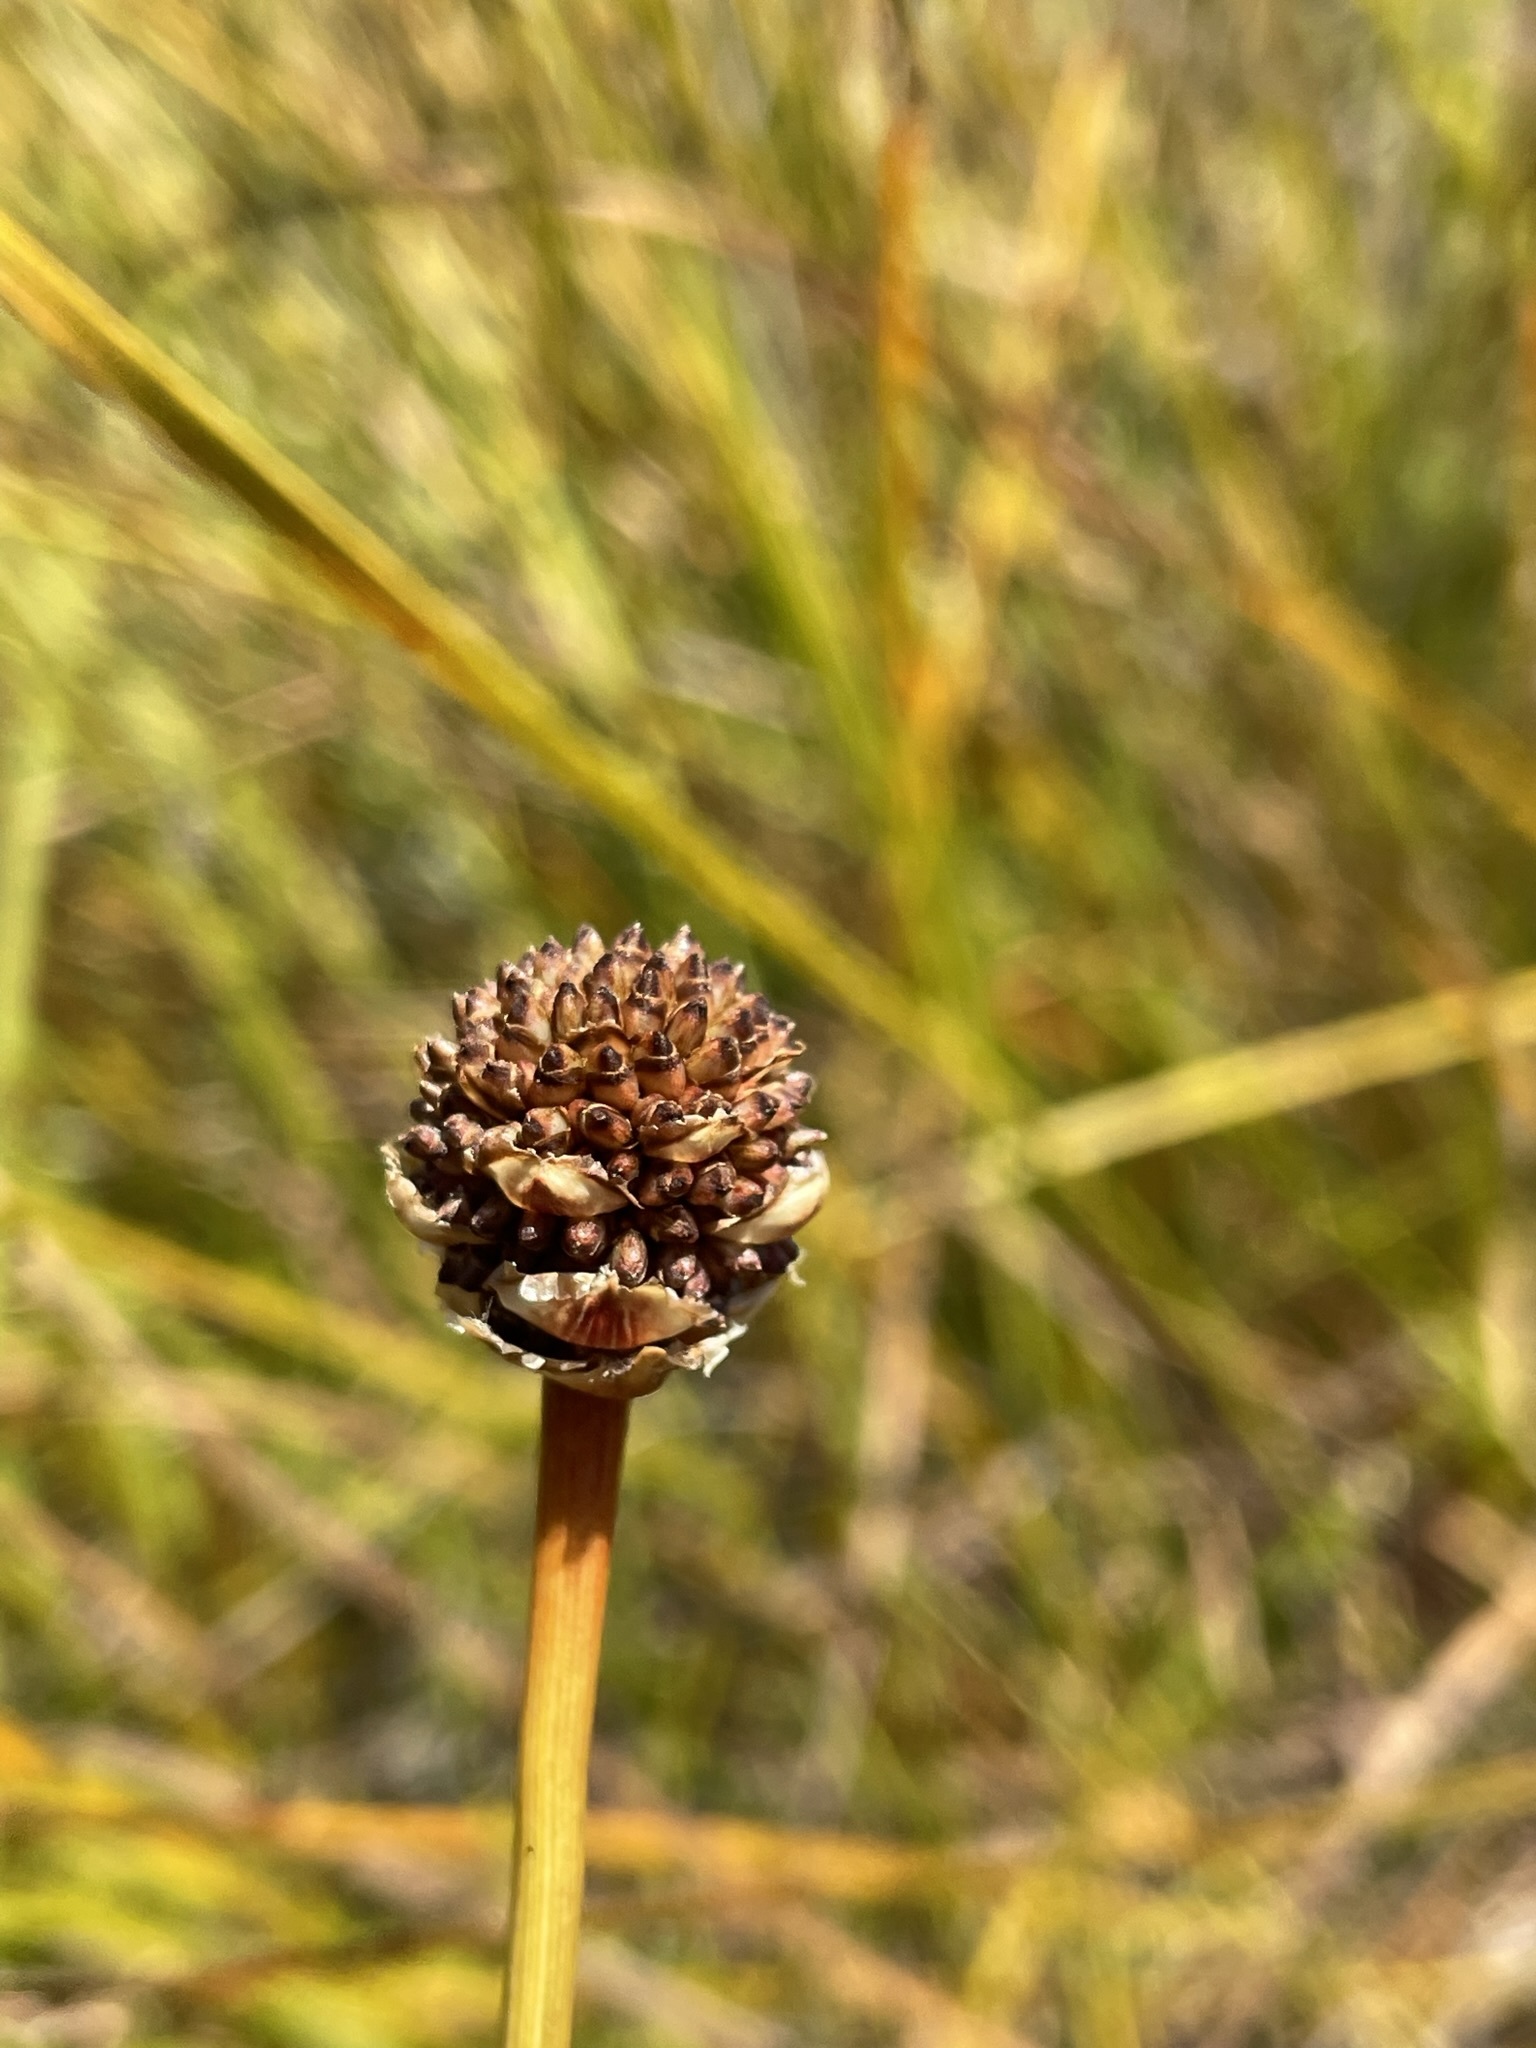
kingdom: Plantae
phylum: Tracheophyta
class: Liliopsida
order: Poales
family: Cyperaceae
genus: Gymnoschoenus
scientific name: Gymnoschoenus sphaerocephalus
